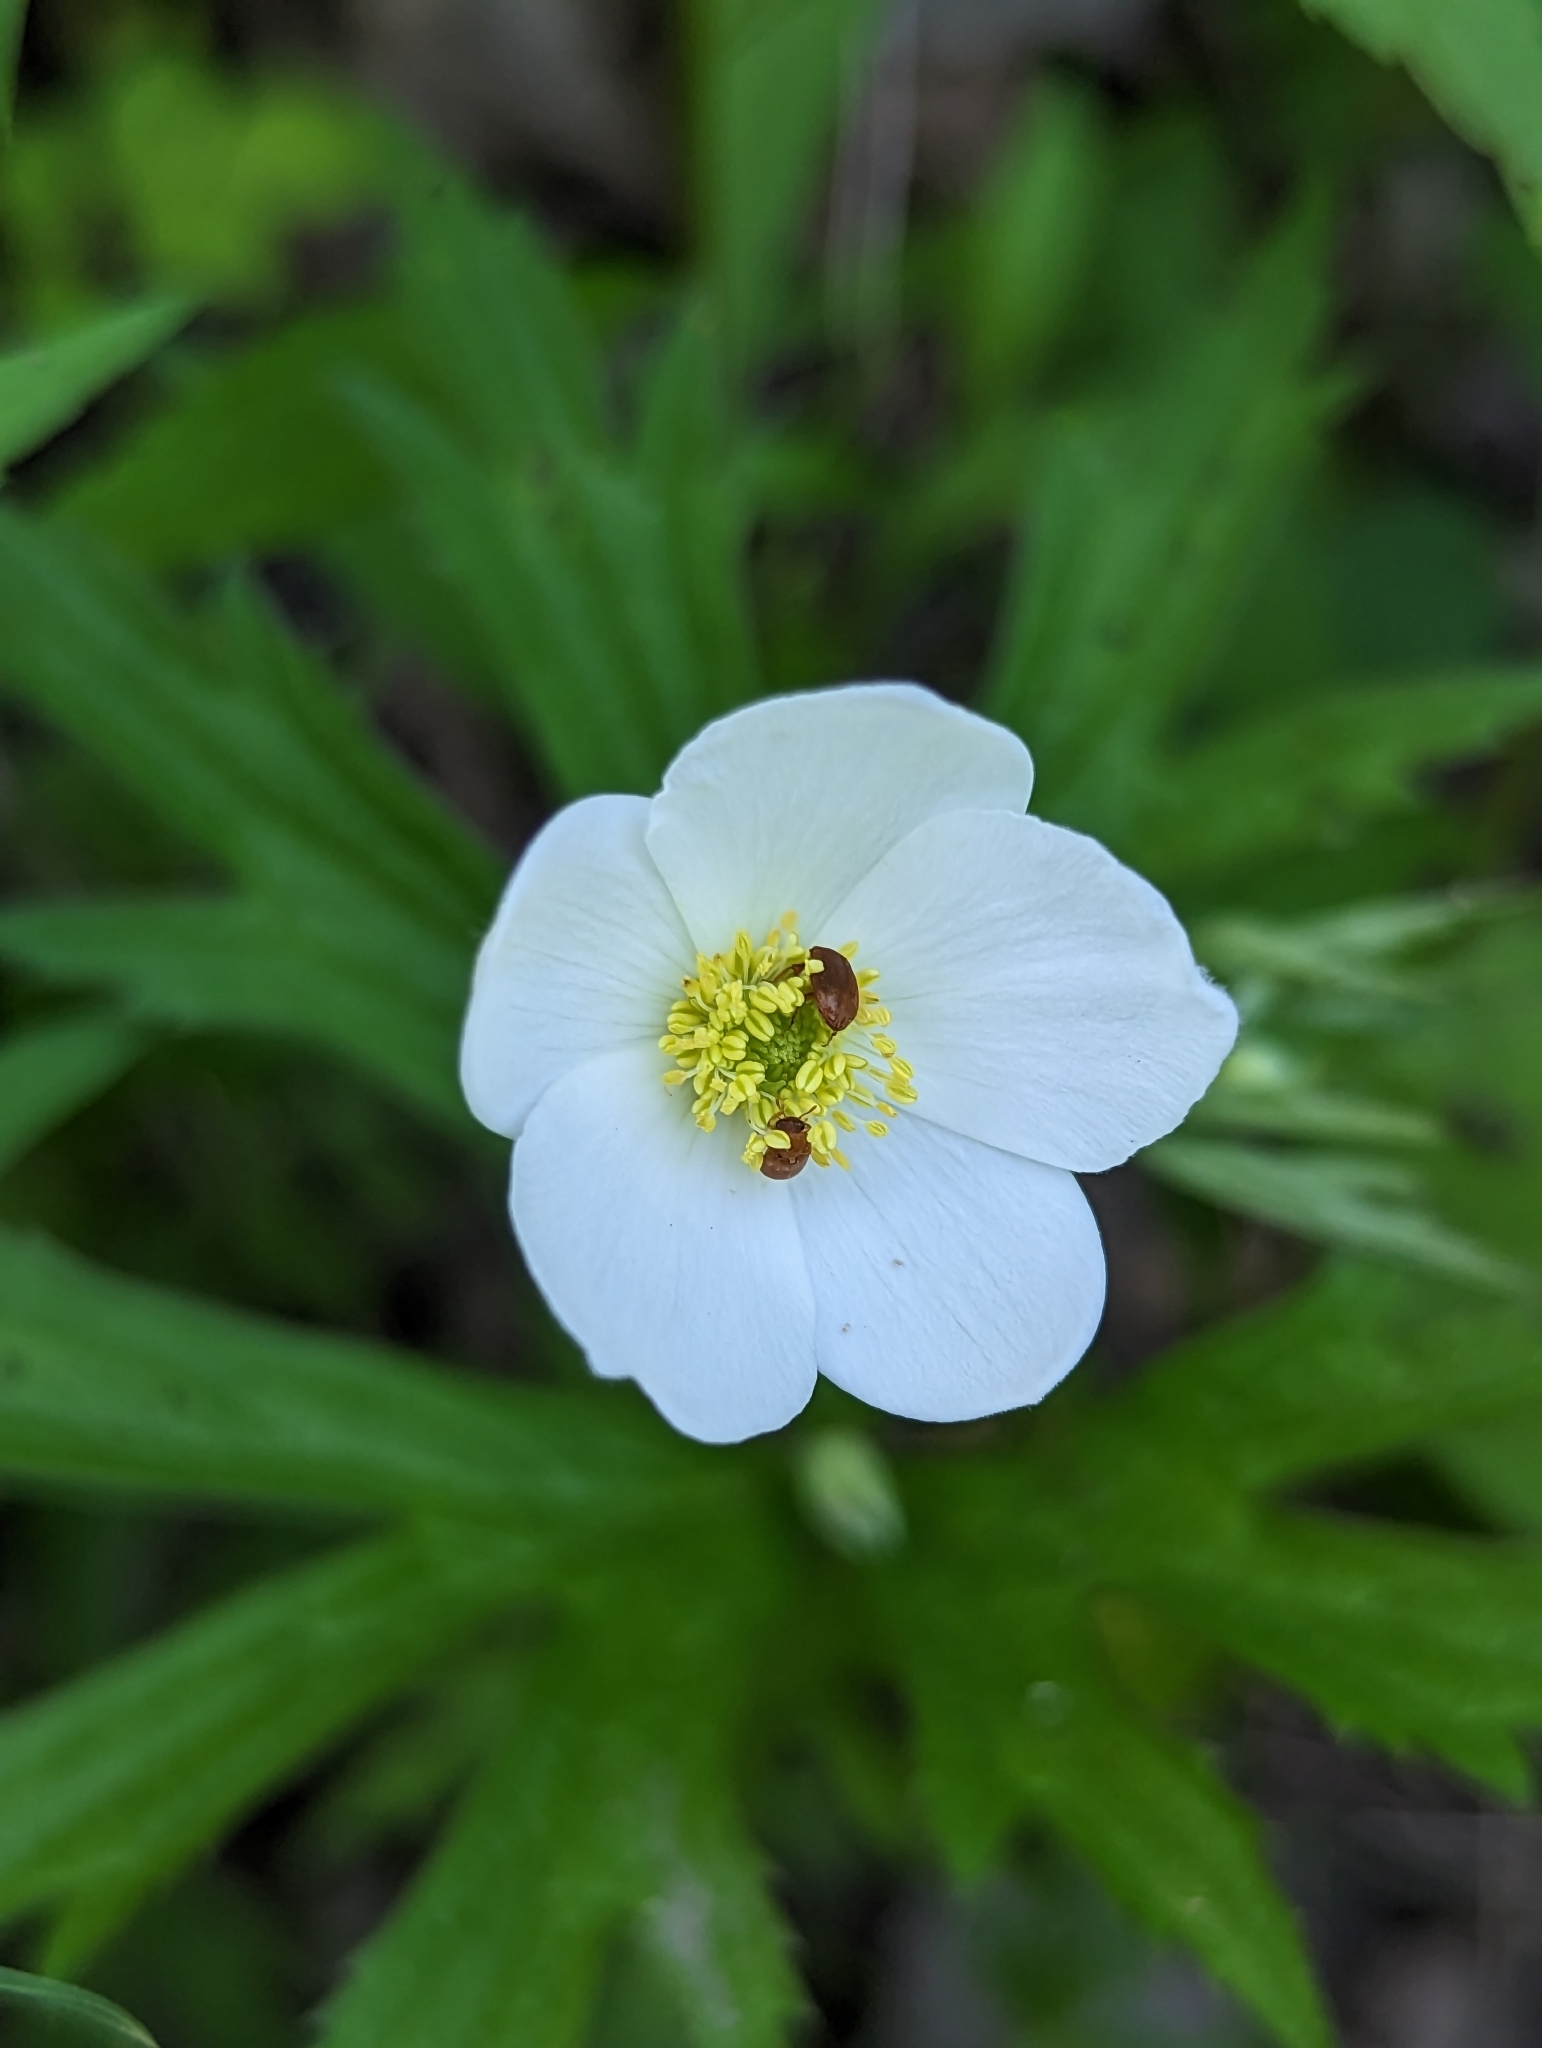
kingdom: Plantae
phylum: Tracheophyta
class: Magnoliopsida
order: Ranunculales
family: Ranunculaceae
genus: Anemonastrum
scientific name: Anemonastrum canadense
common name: Canada anemone
